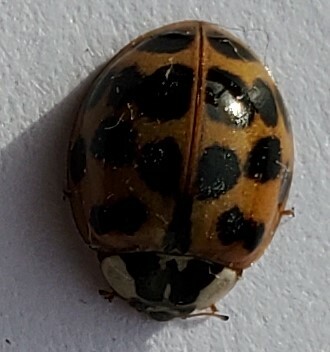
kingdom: Animalia
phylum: Arthropoda
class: Insecta
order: Coleoptera
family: Coccinellidae
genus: Harmonia
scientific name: Harmonia axyridis
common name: Harlequin ladybird
